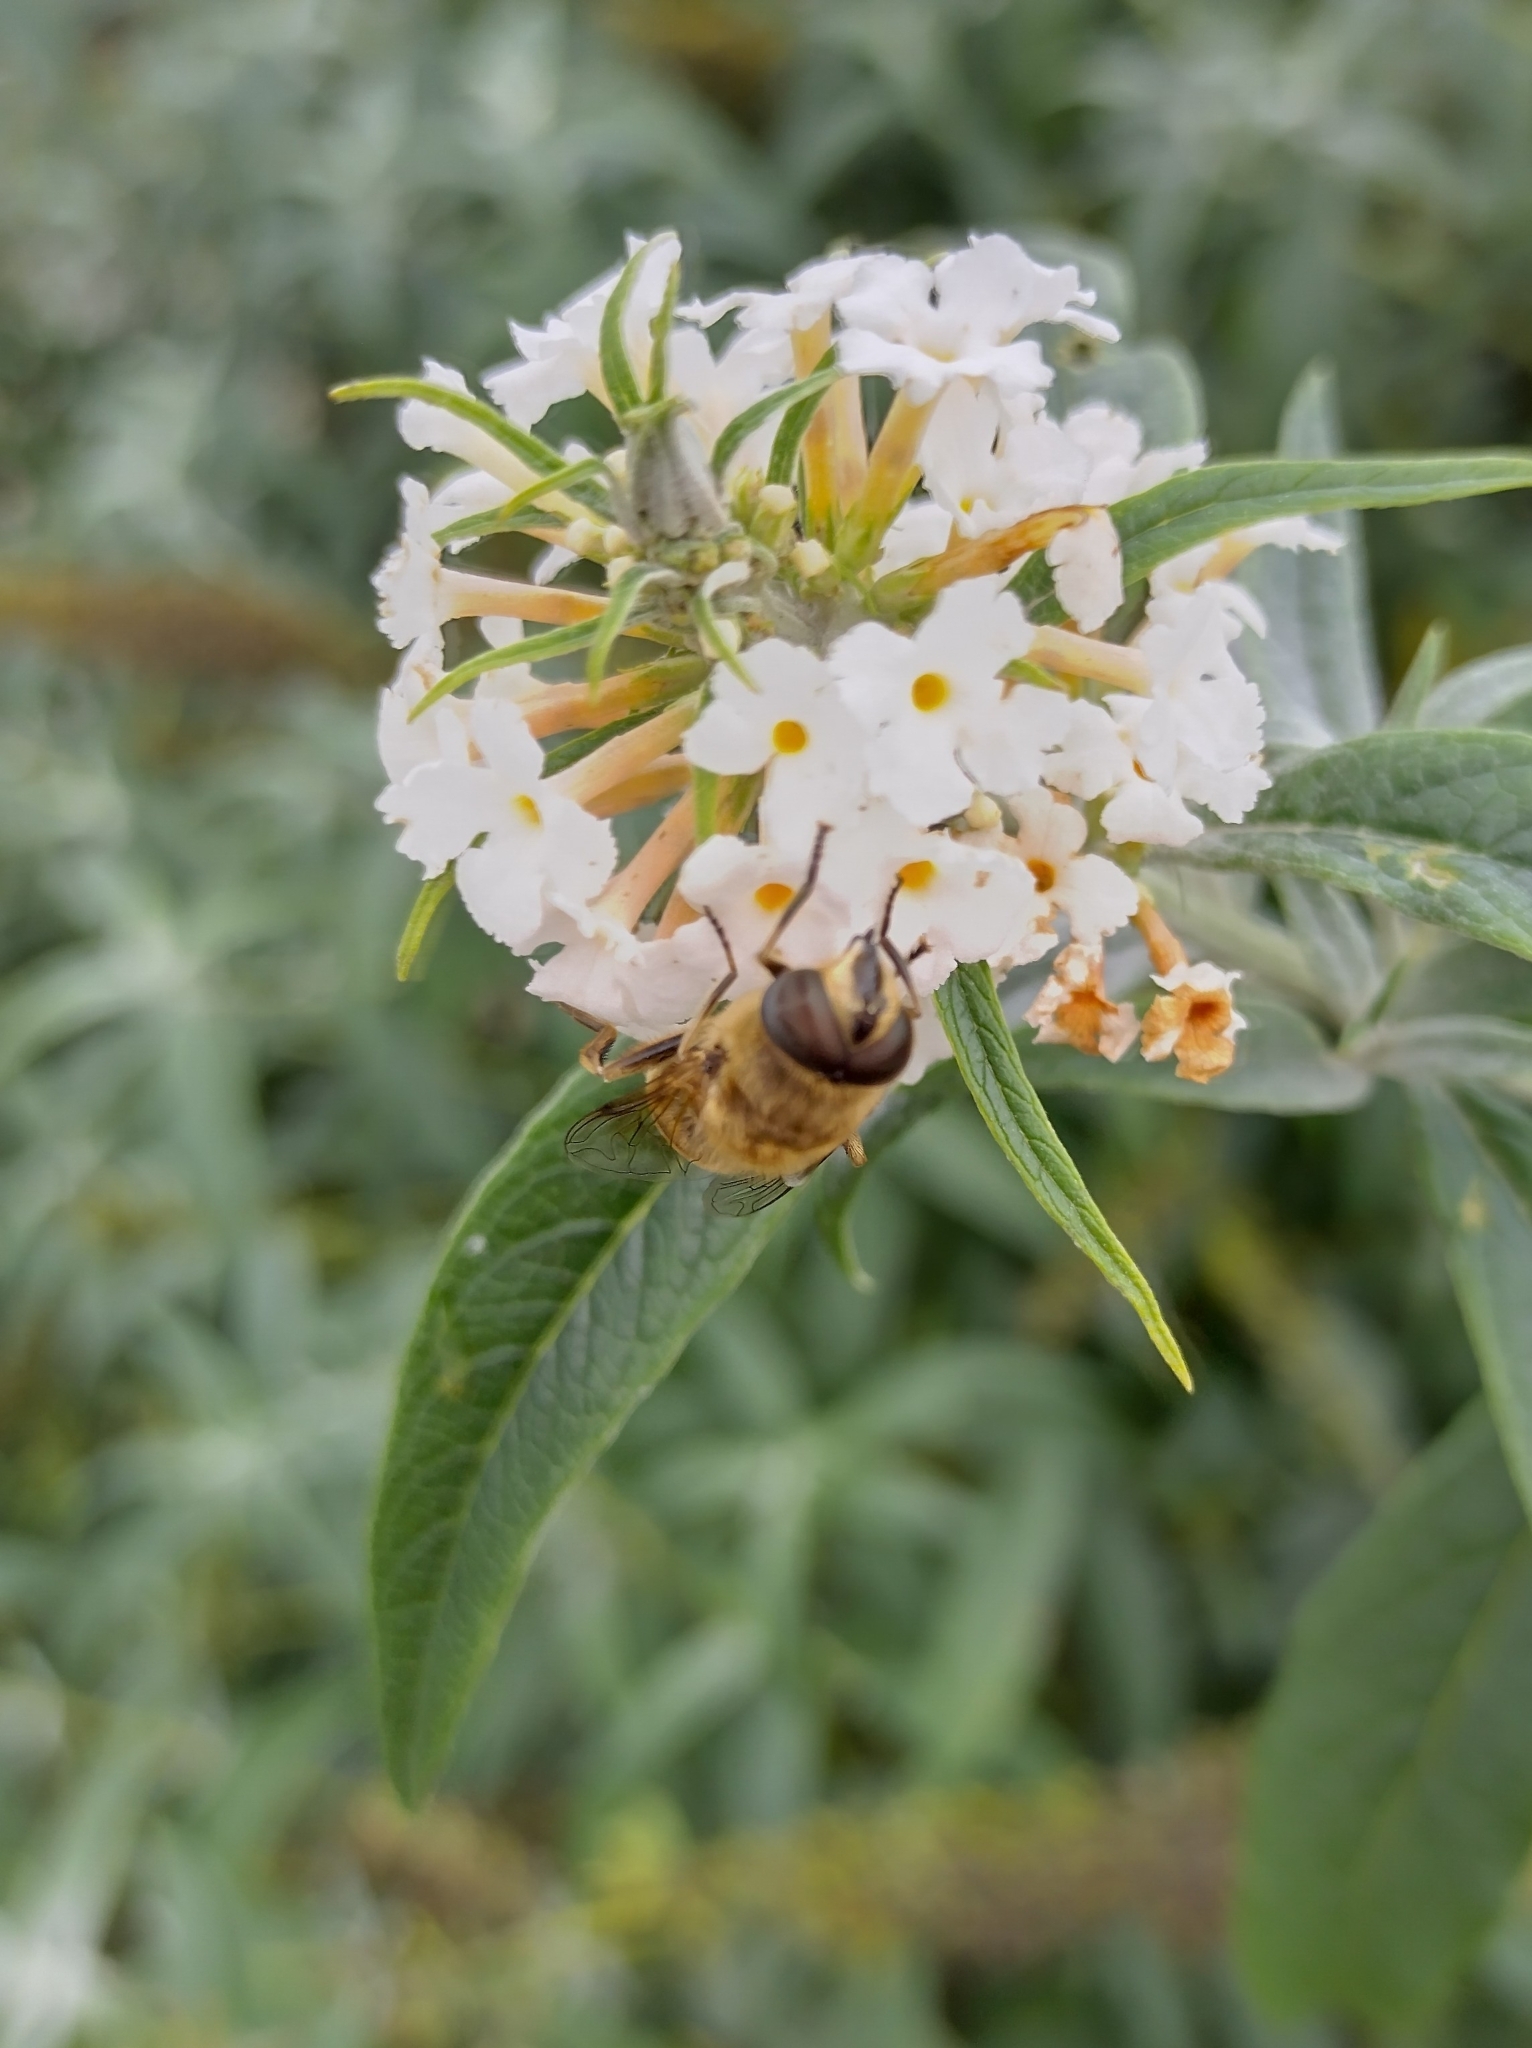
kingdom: Animalia
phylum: Arthropoda
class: Insecta
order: Diptera
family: Syrphidae
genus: Eristalis
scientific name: Eristalis tenax
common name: Drone fly
